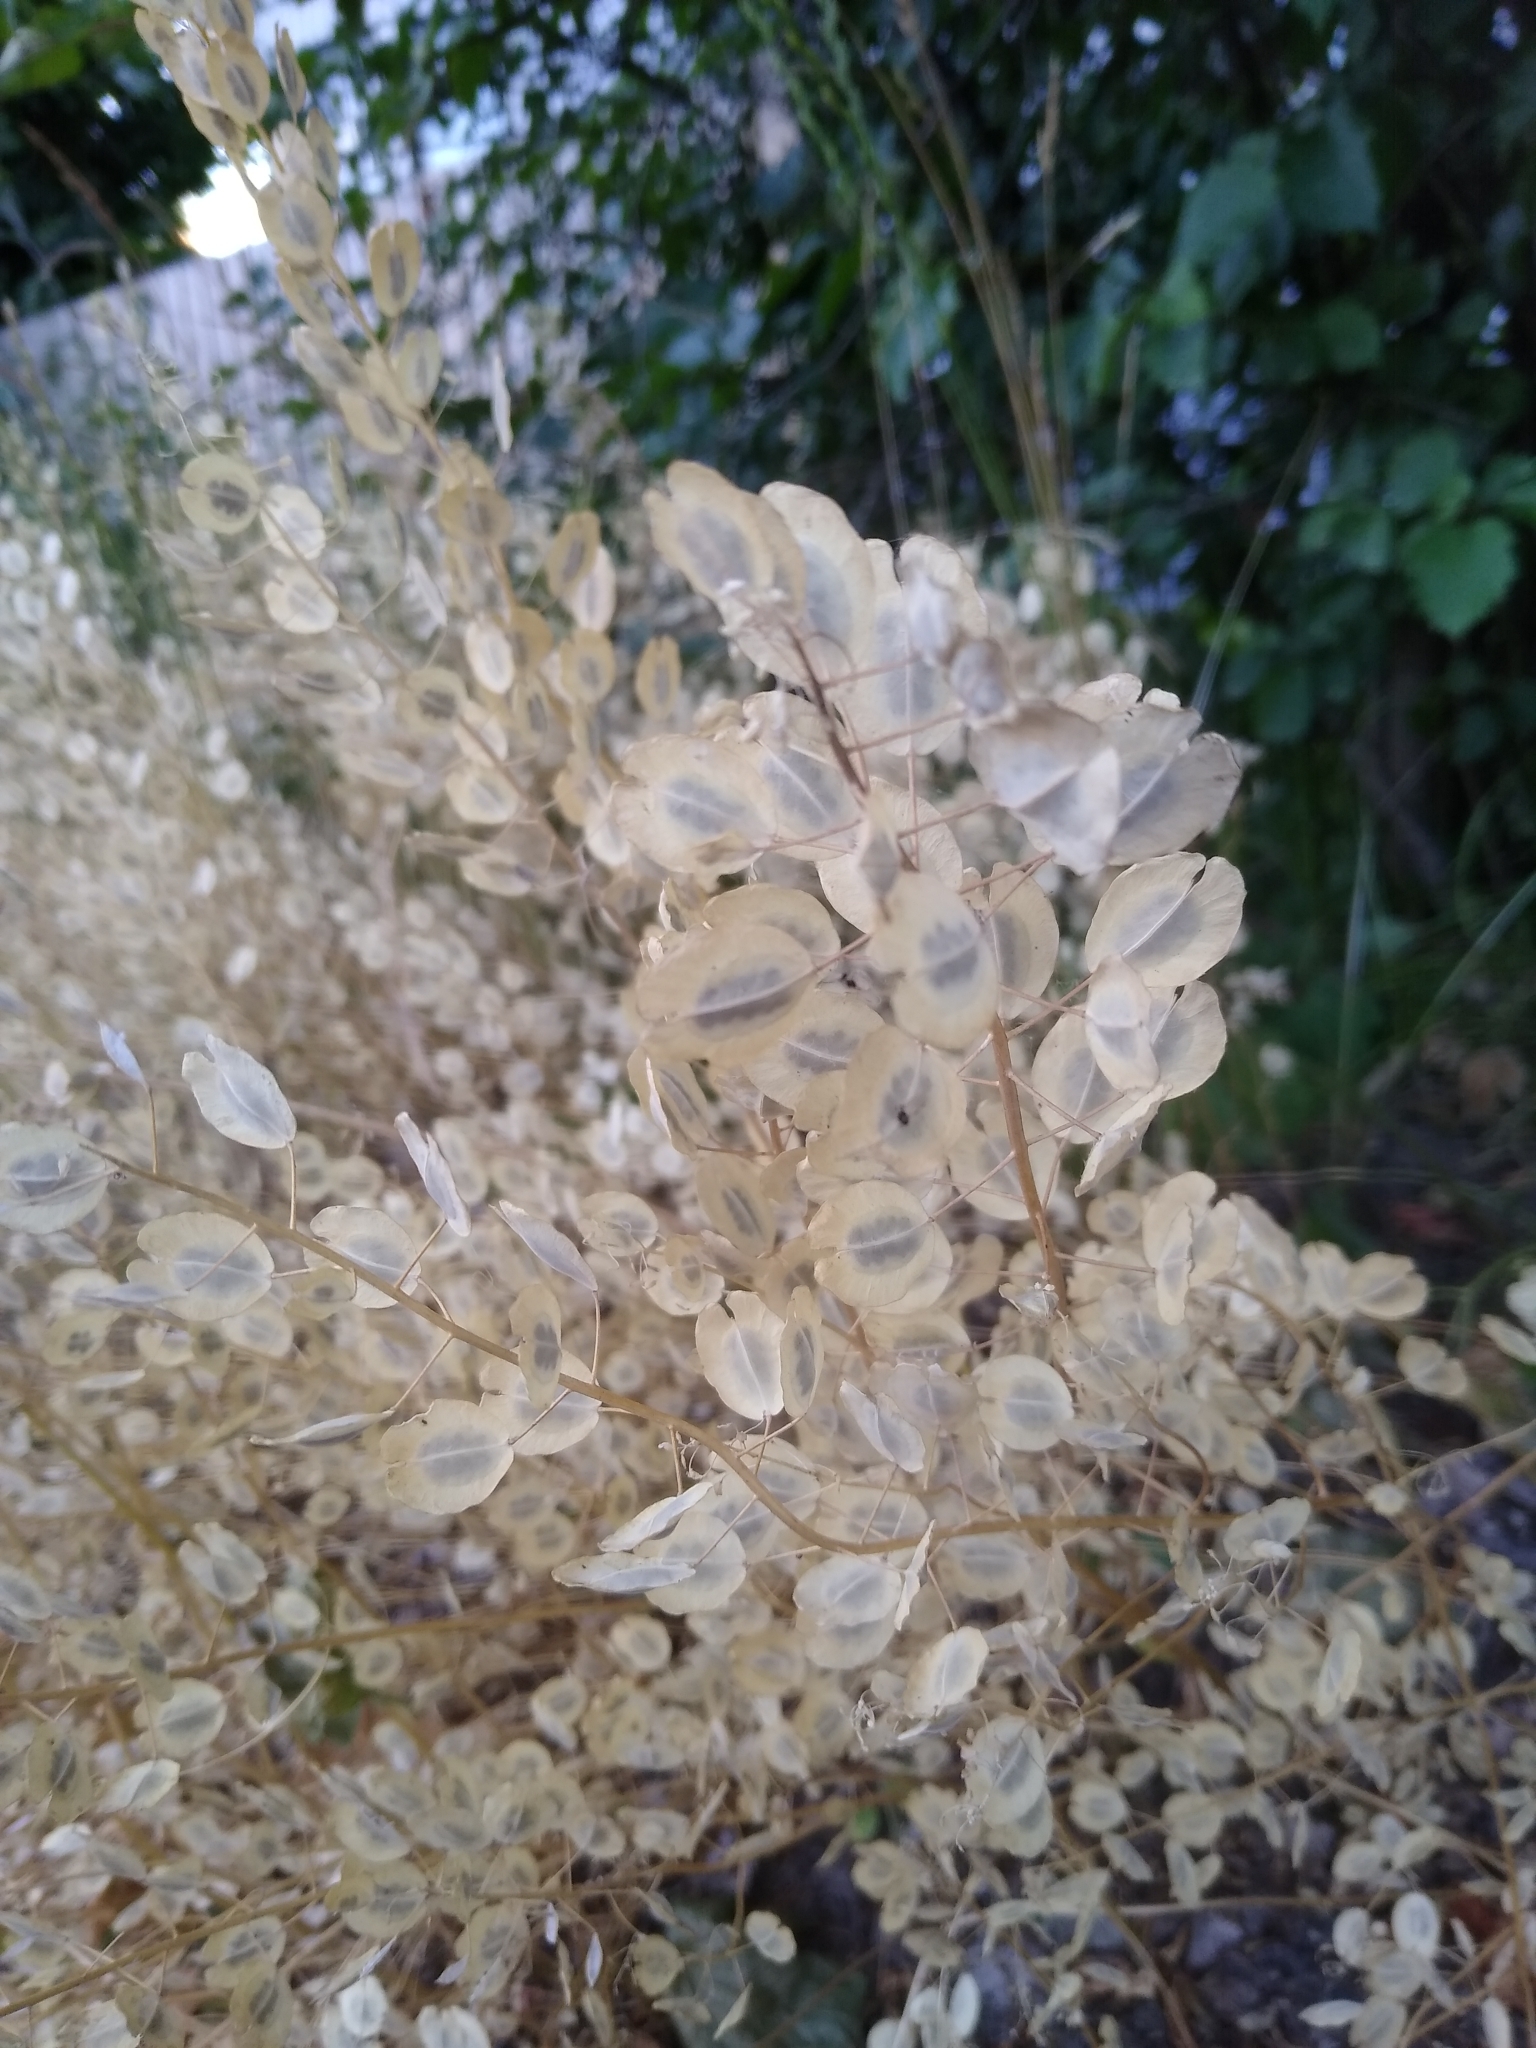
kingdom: Plantae
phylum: Tracheophyta
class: Magnoliopsida
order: Brassicales
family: Brassicaceae
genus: Thlaspi
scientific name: Thlaspi arvense
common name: Field pennycress
